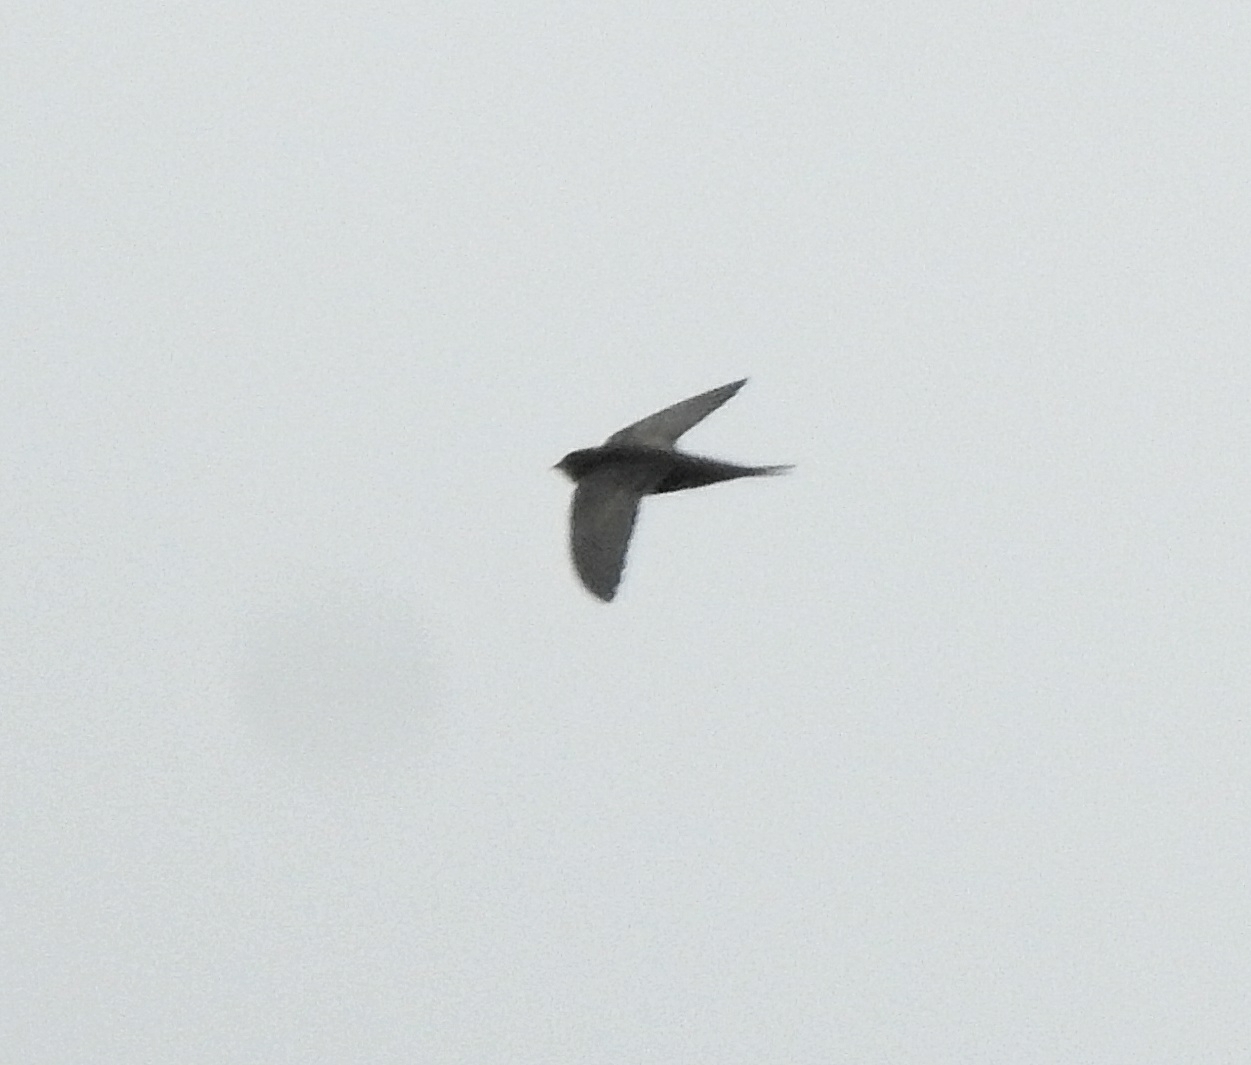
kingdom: Animalia
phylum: Chordata
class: Aves
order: Apodiformes
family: Apodidae
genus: Apus
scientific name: Apus apus
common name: Common swift
